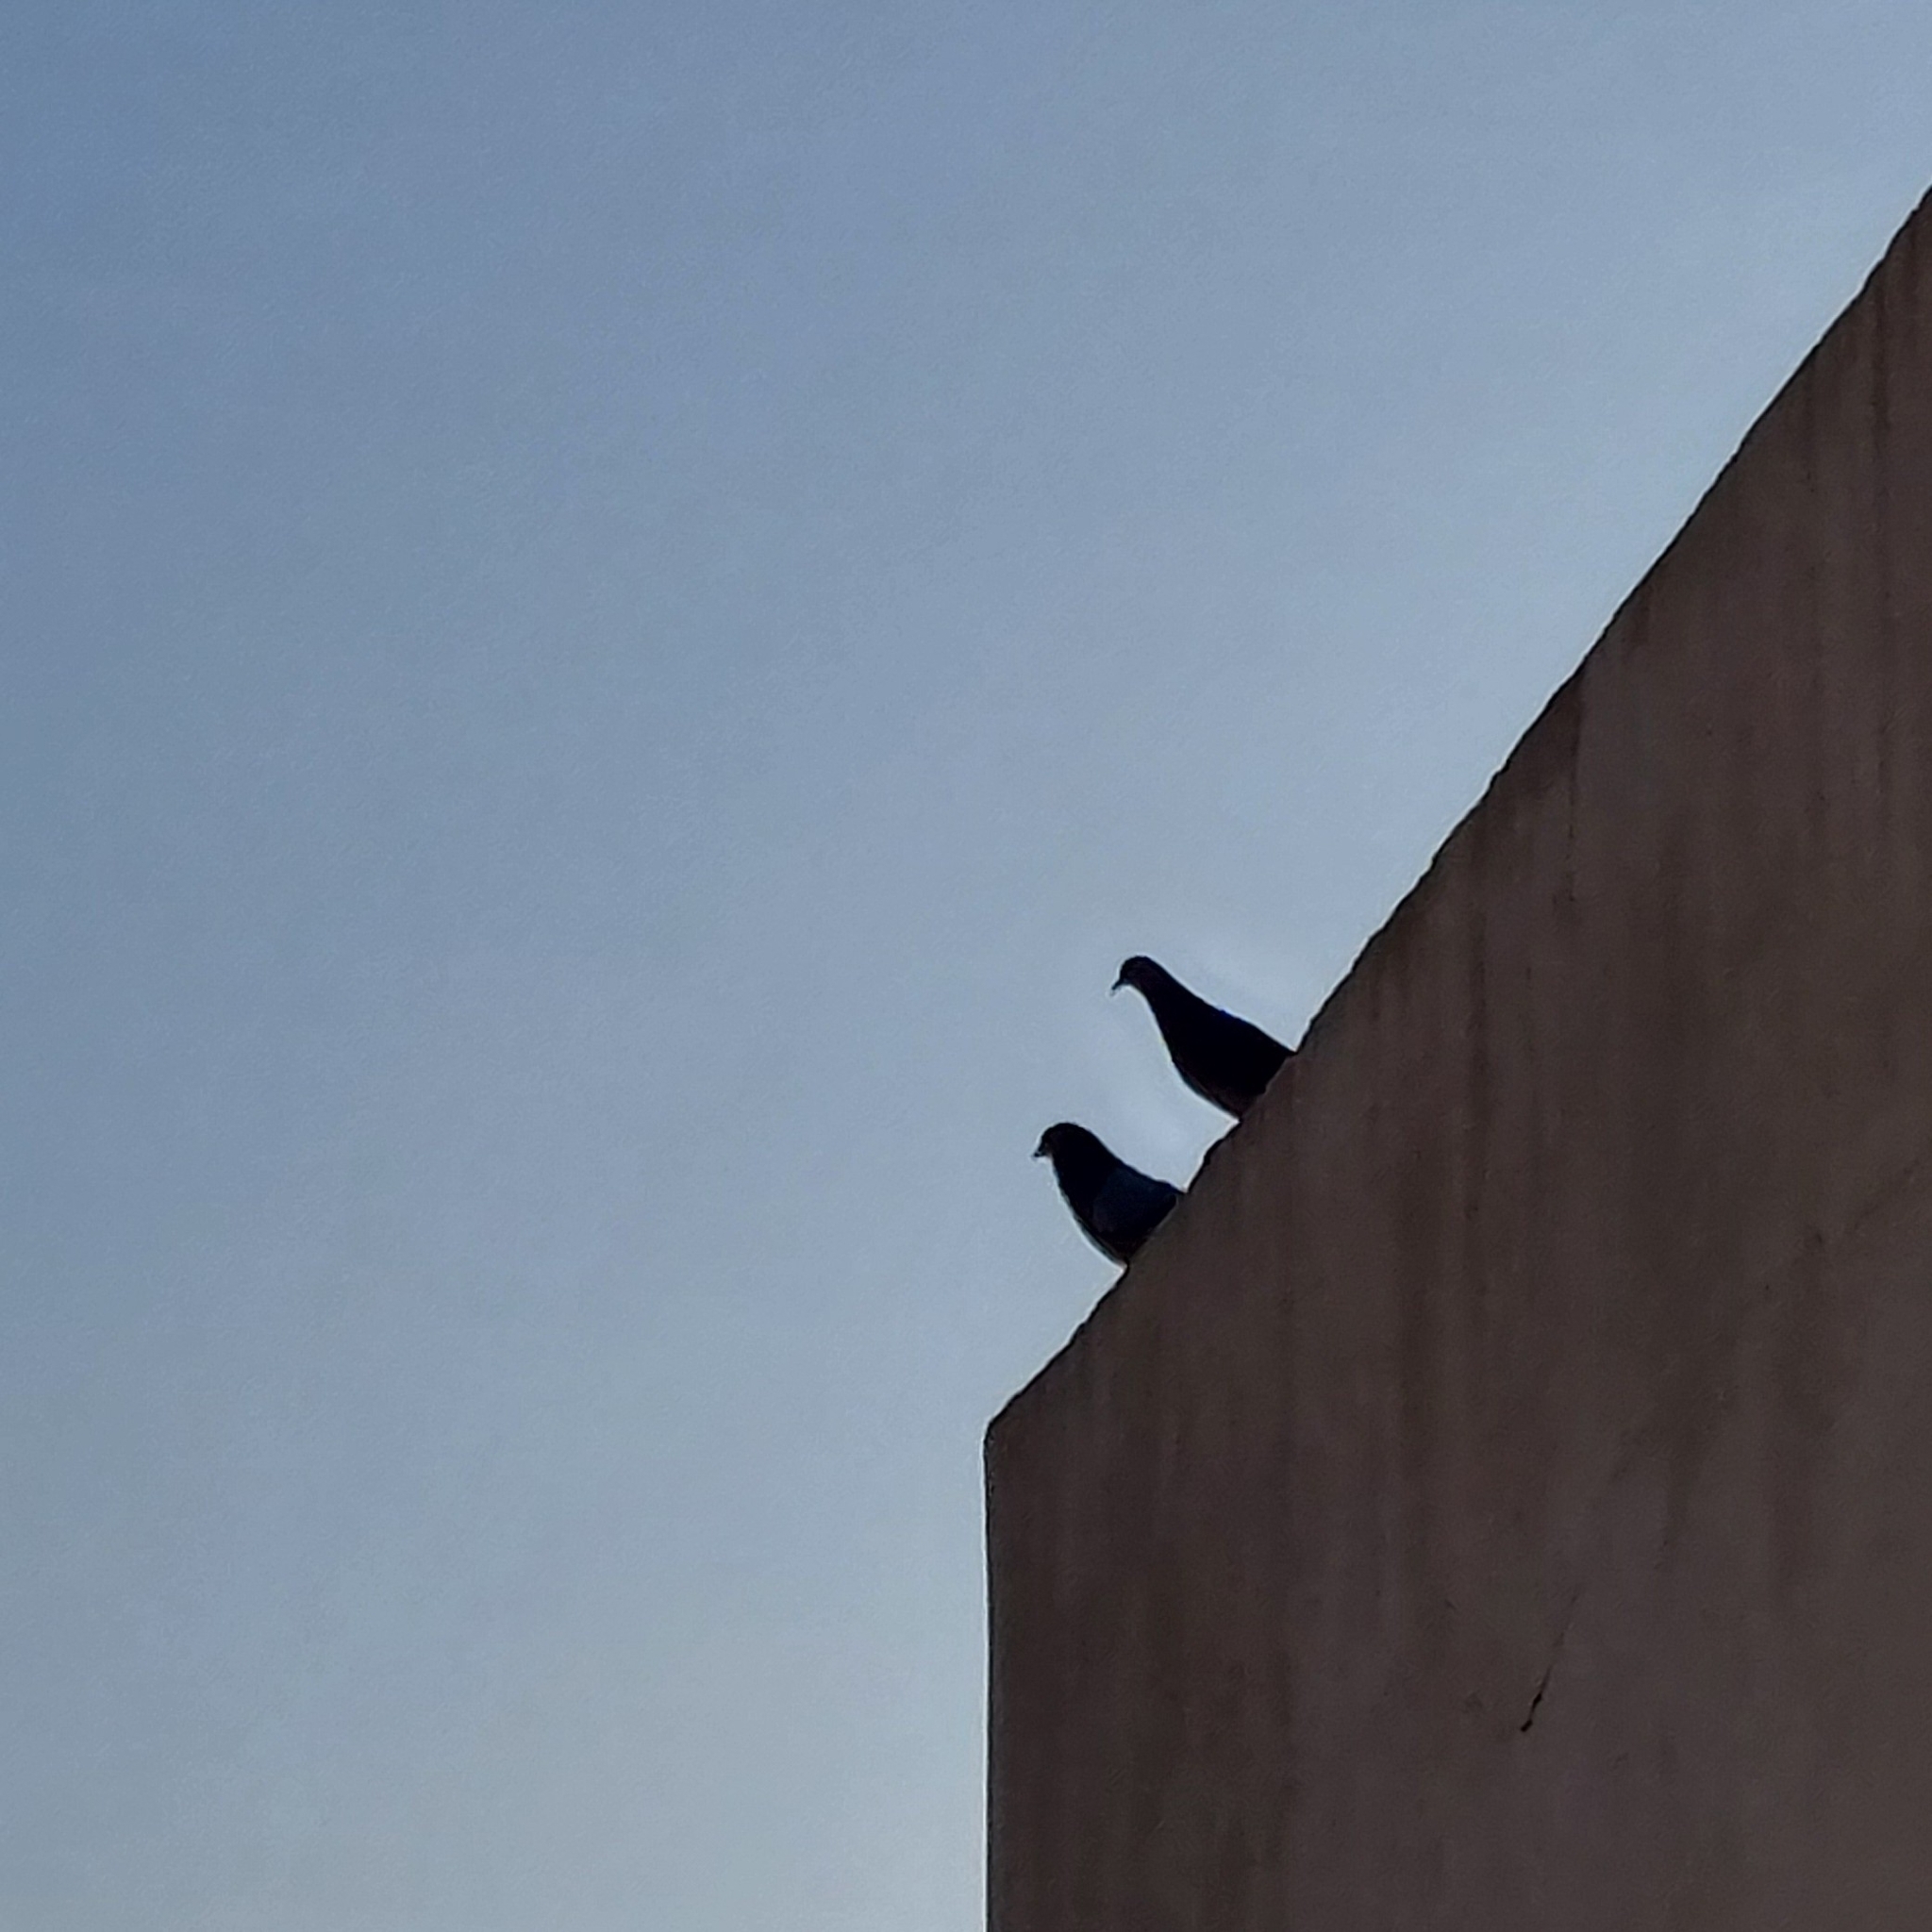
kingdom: Animalia
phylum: Chordata
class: Aves
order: Columbiformes
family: Columbidae
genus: Columba
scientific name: Columba livia
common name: Rock pigeon
